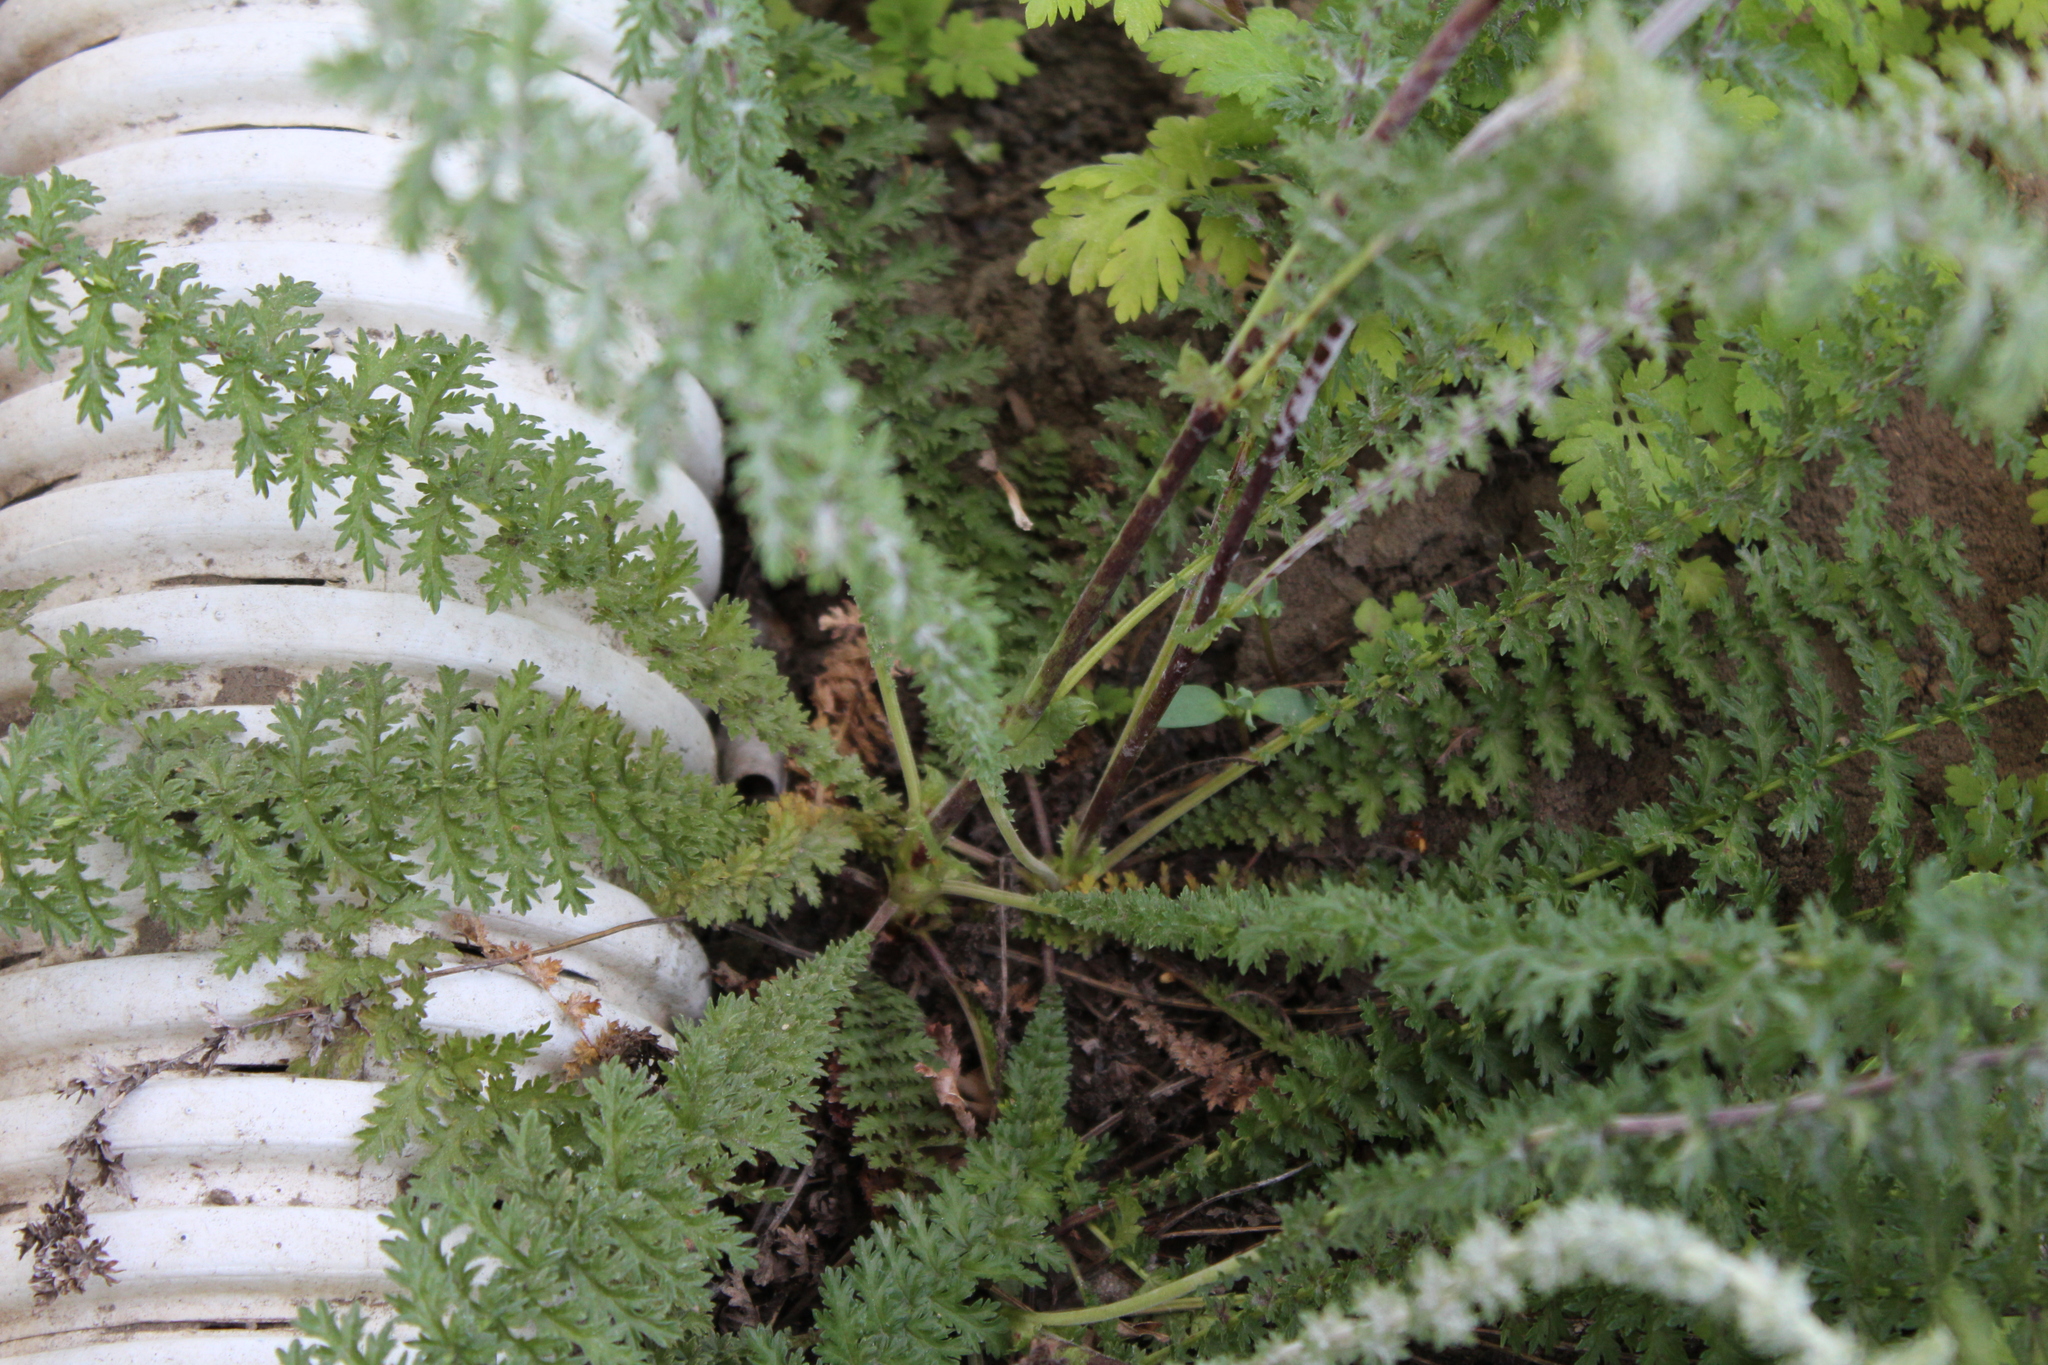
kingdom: Plantae
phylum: Tracheophyta
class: Magnoliopsida
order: Asterales
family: Asteraceae
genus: Achillea
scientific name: Achillea millefolium
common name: Yarrow
